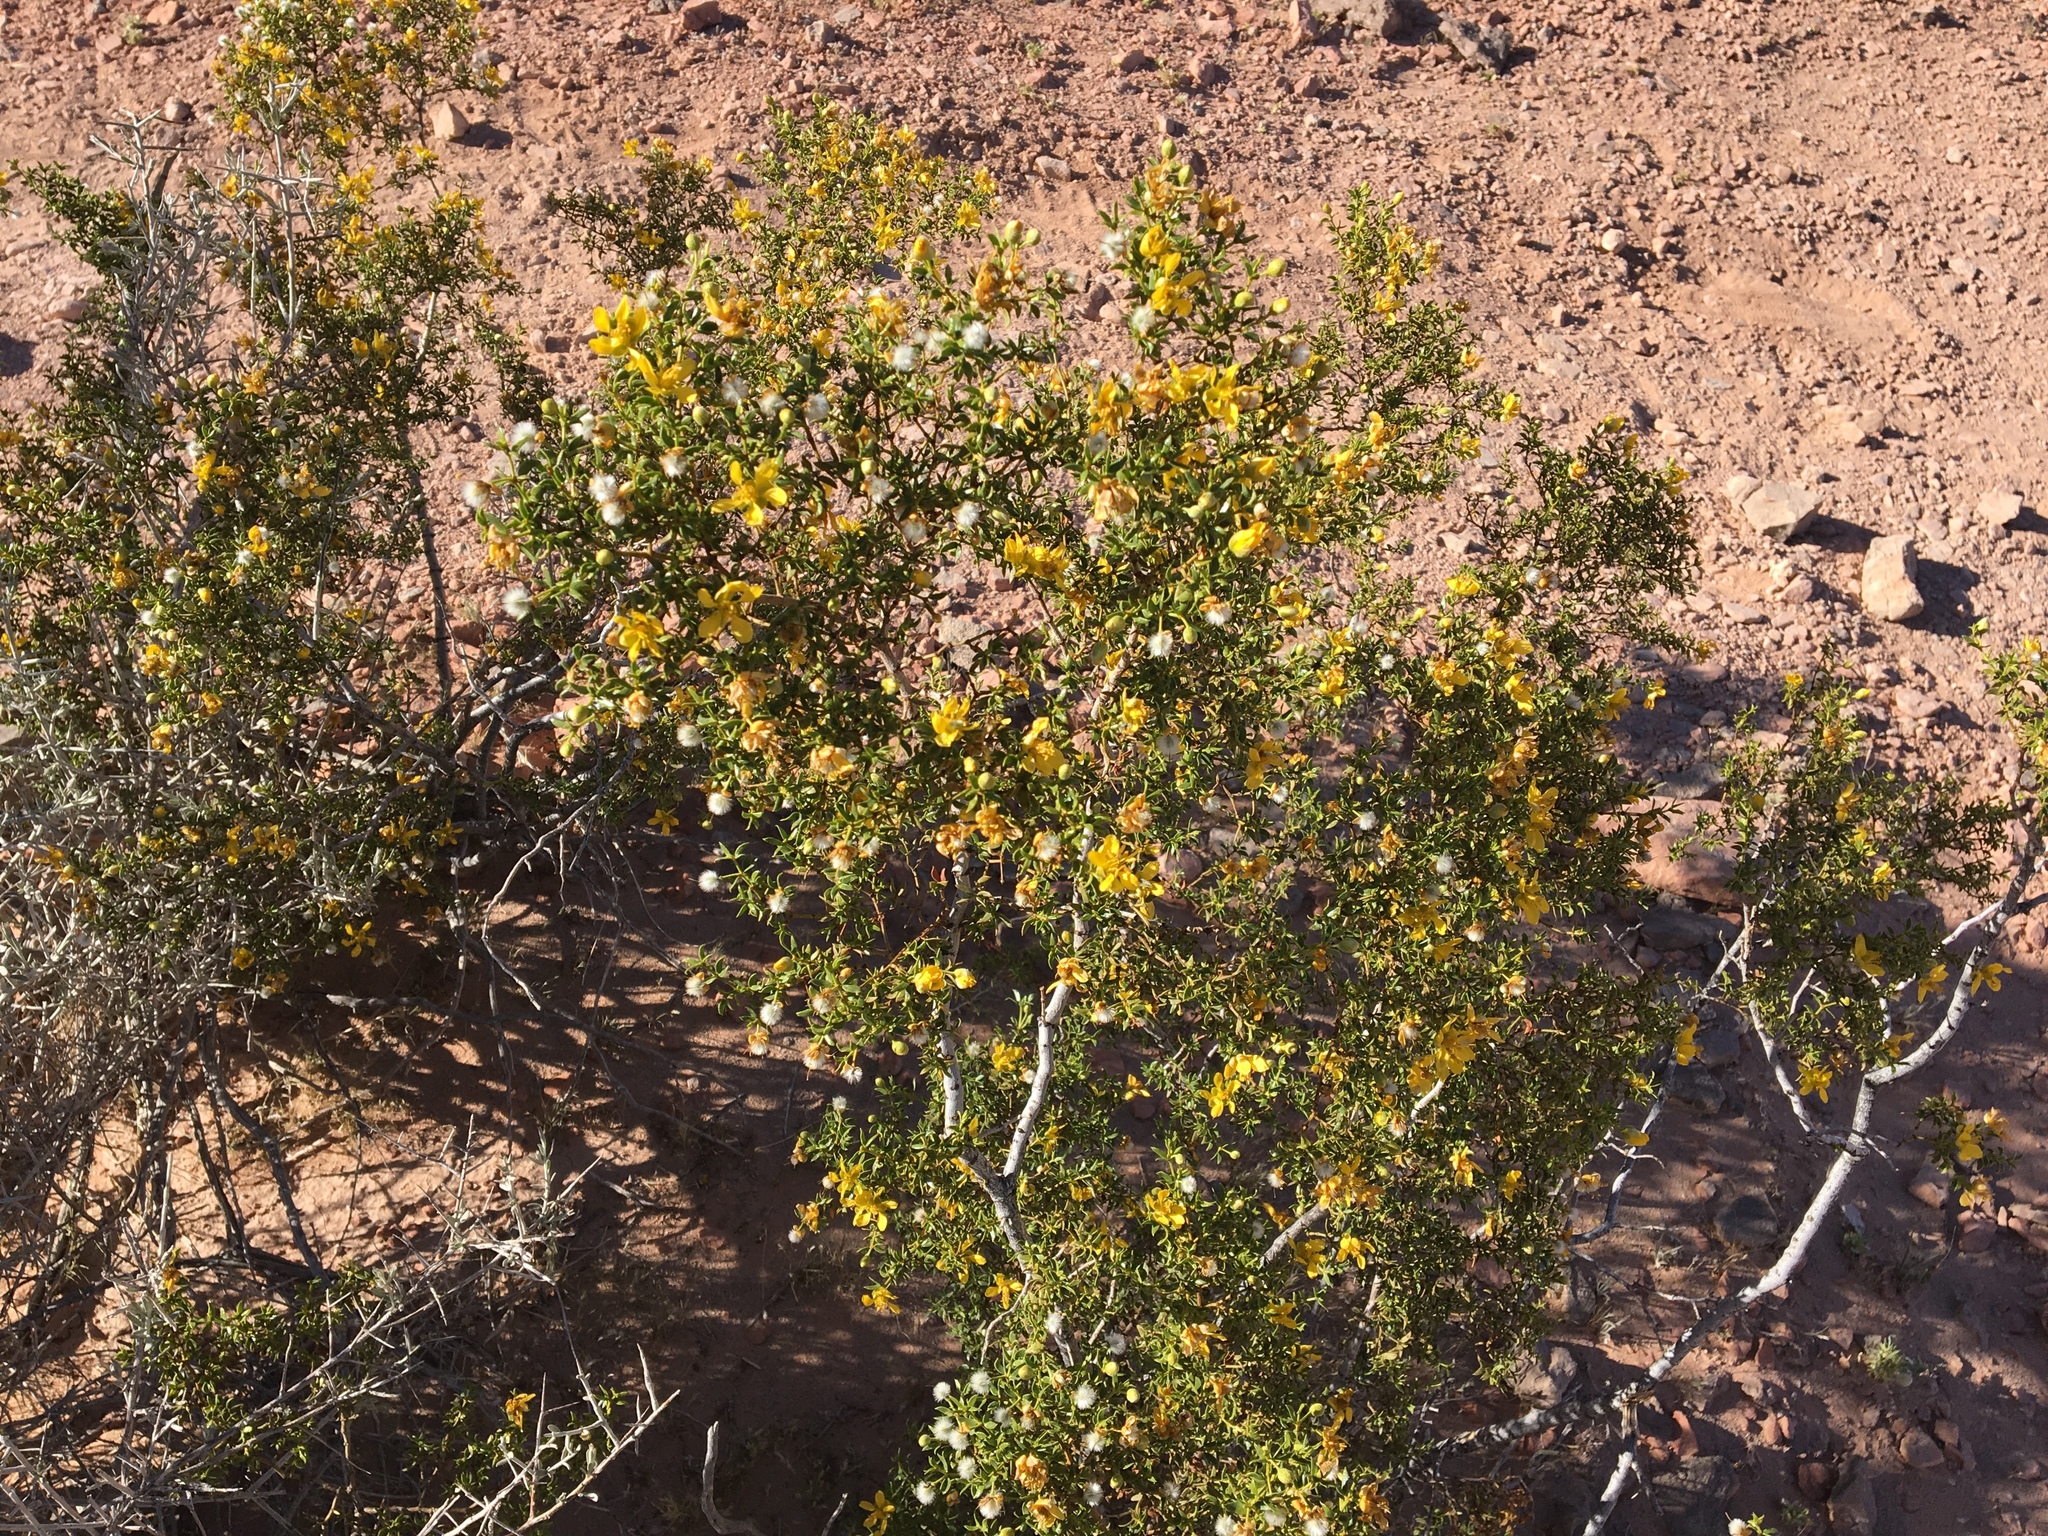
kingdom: Plantae
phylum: Tracheophyta
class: Magnoliopsida
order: Zygophyllales
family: Zygophyllaceae
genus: Larrea
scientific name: Larrea tridentata
